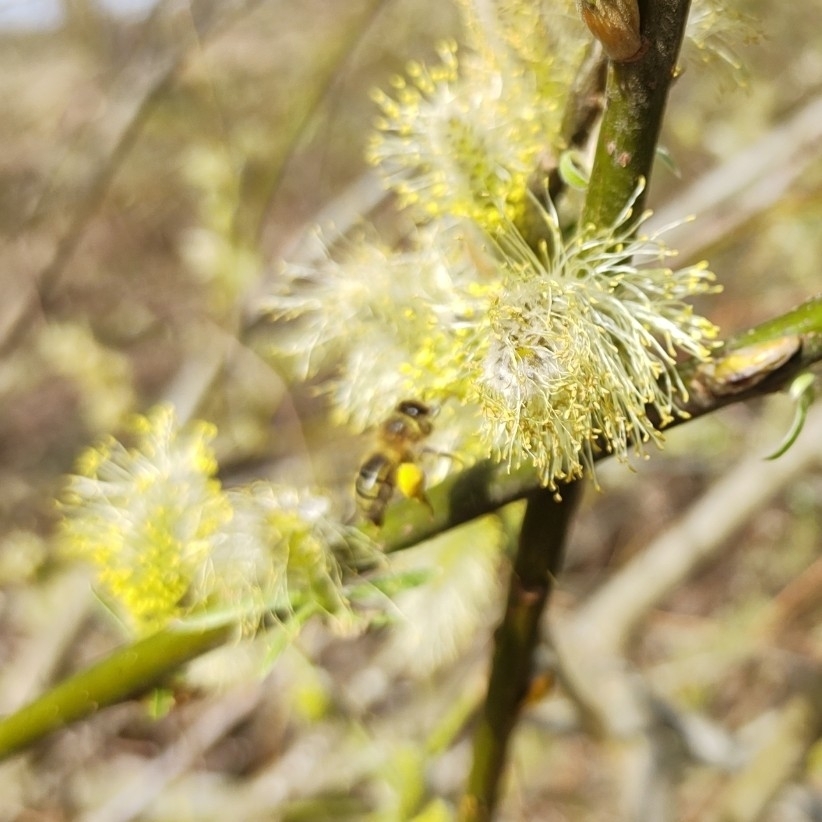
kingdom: Animalia
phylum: Arthropoda
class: Insecta
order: Hymenoptera
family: Apidae
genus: Apis
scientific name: Apis mellifera
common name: Honey bee
